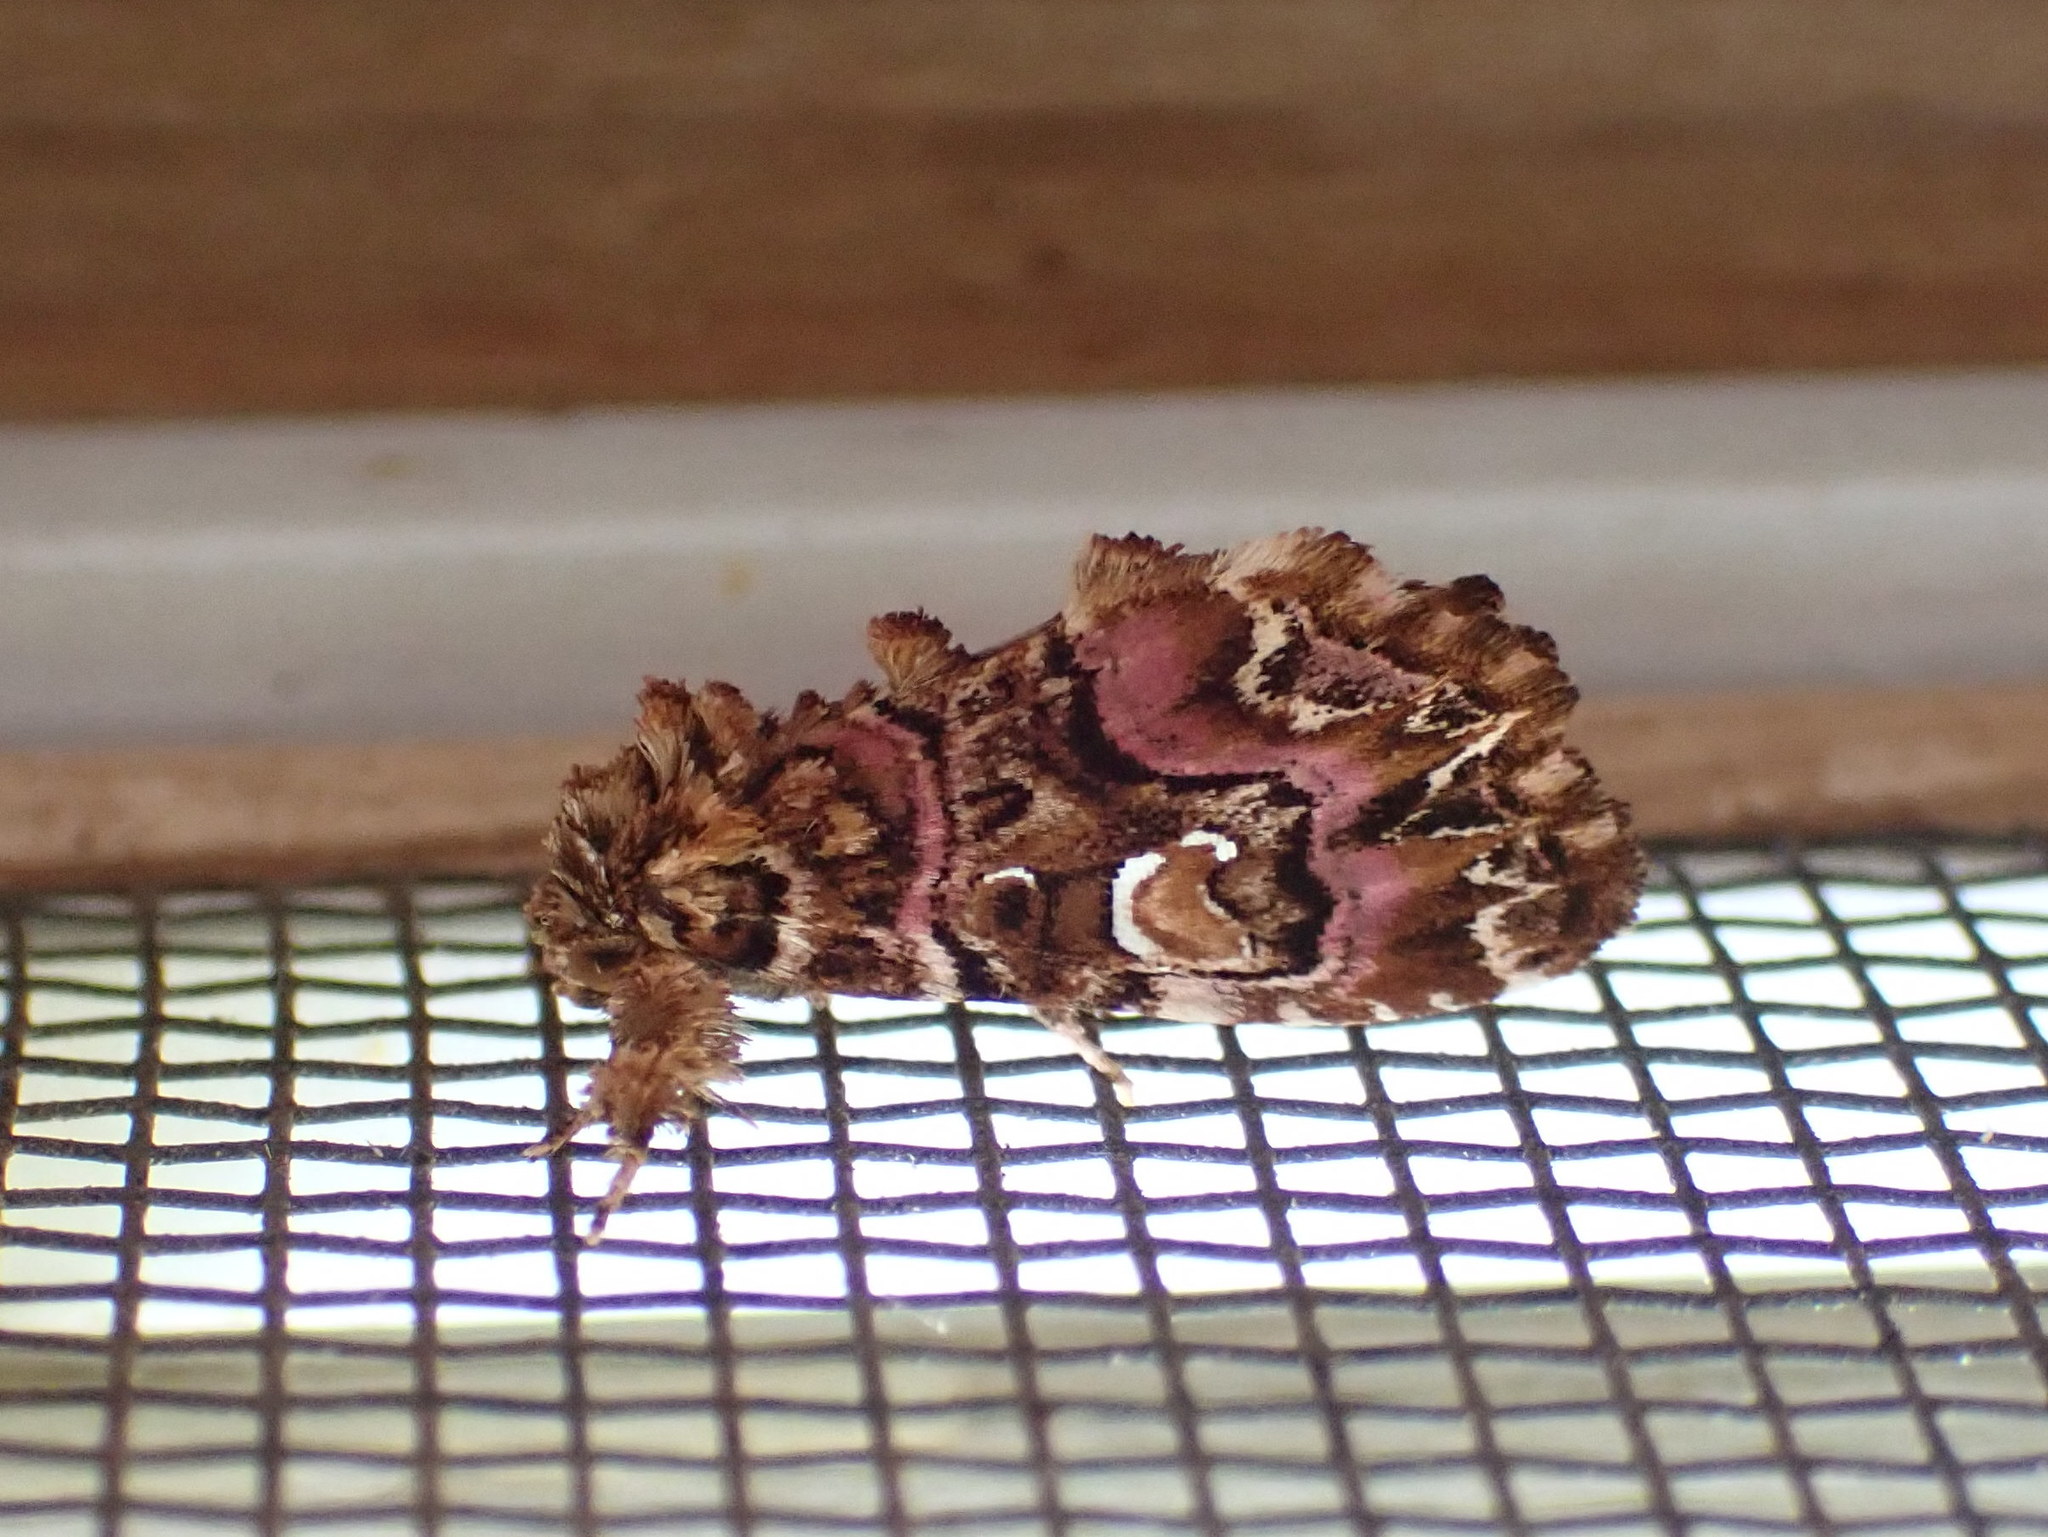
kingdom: Animalia
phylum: Arthropoda
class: Insecta
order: Lepidoptera
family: Noctuidae
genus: Callopistria
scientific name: Callopistria mollissima
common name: Pink-shaded fern moth
